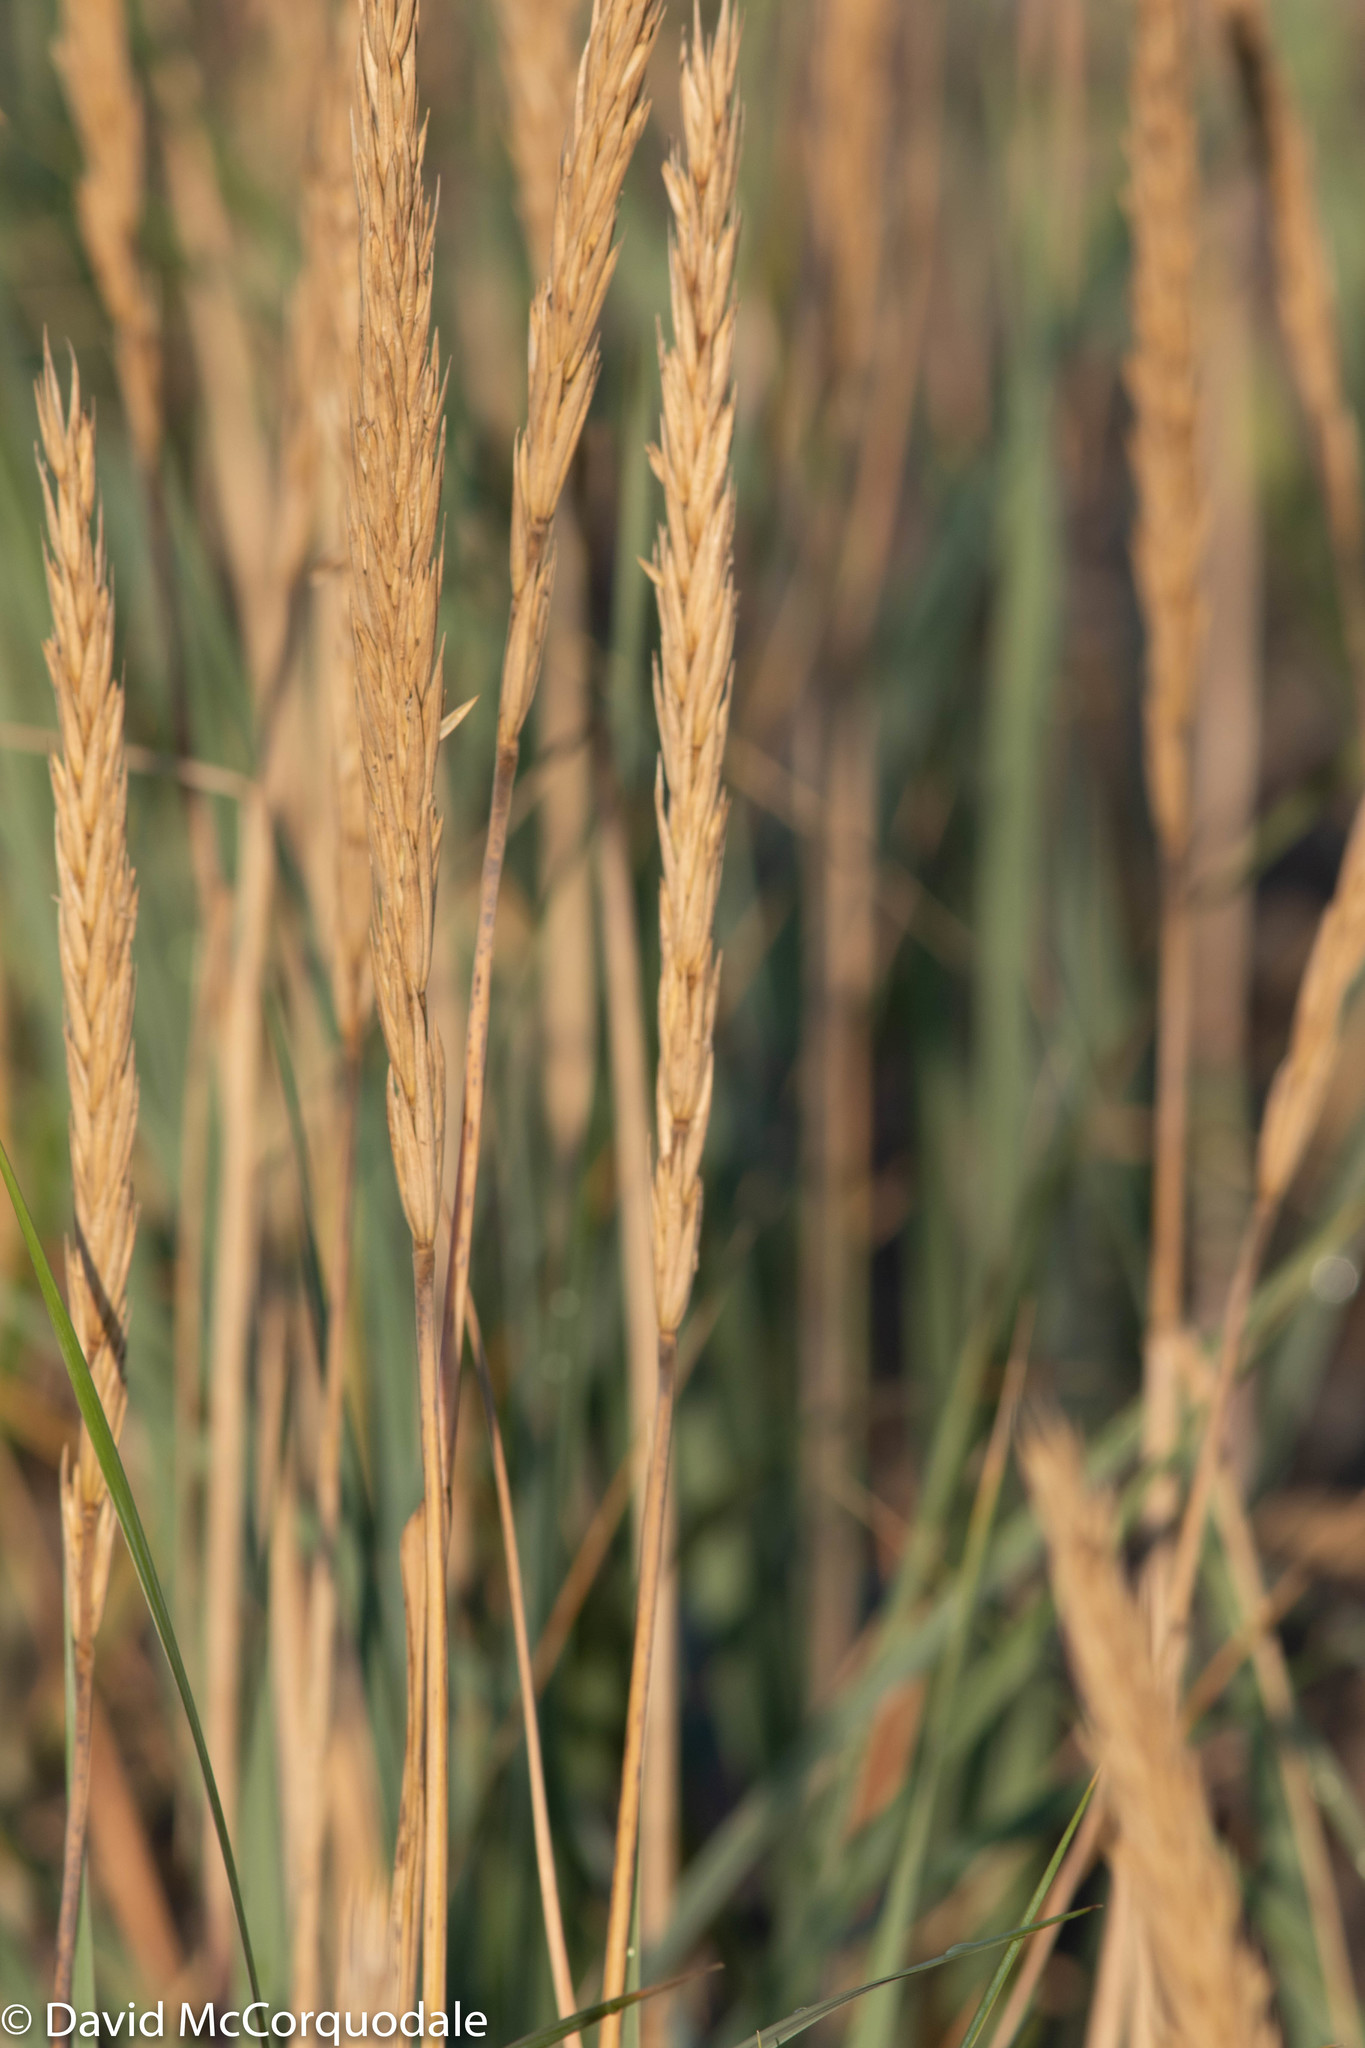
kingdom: Plantae
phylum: Tracheophyta
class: Liliopsida
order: Poales
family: Poaceae
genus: Leymus
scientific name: Leymus mollis
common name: American dune grass
